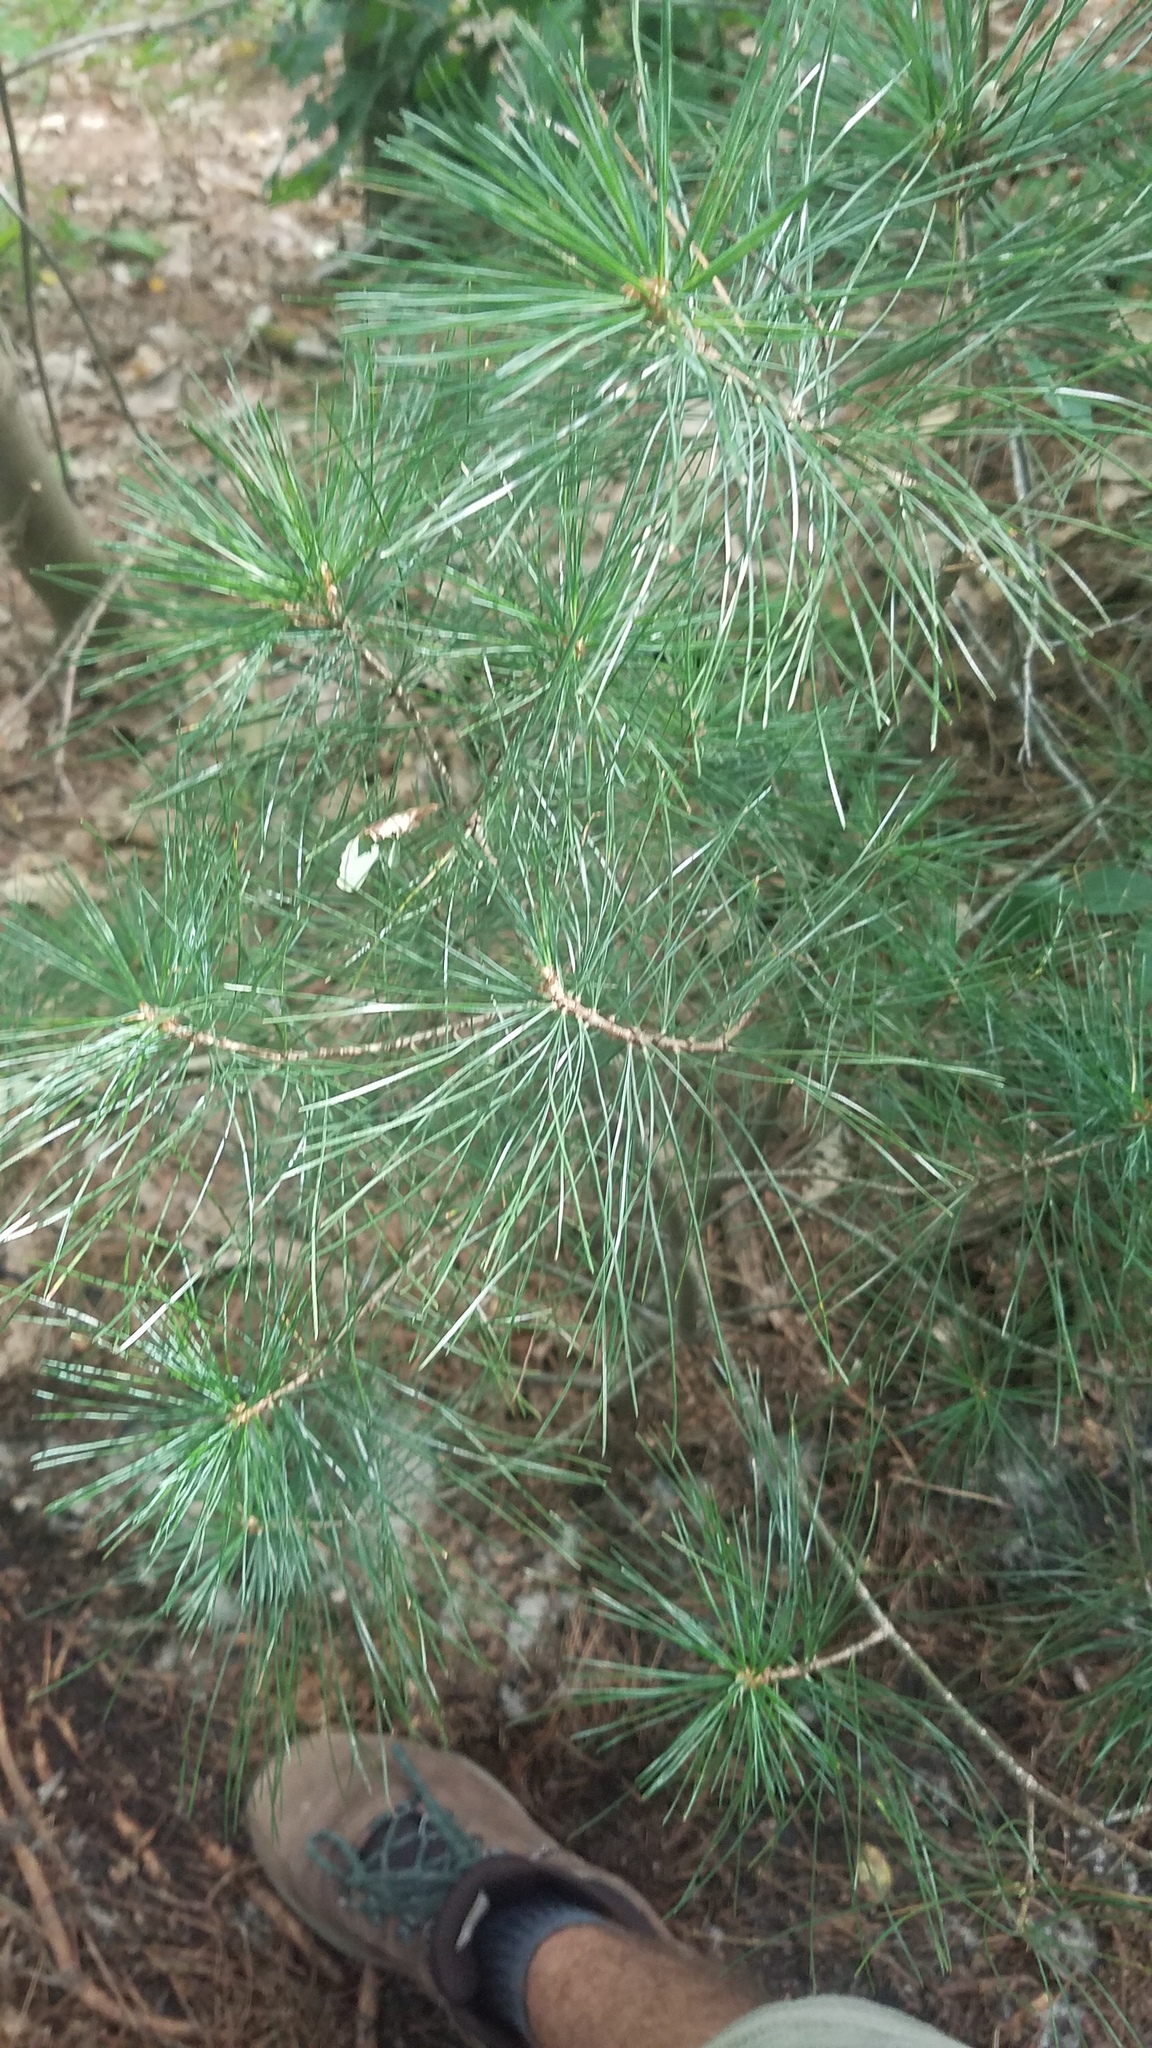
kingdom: Plantae
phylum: Tracheophyta
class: Pinopsida
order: Pinales
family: Pinaceae
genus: Pinus
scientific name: Pinus strobus
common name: Weymouth pine
